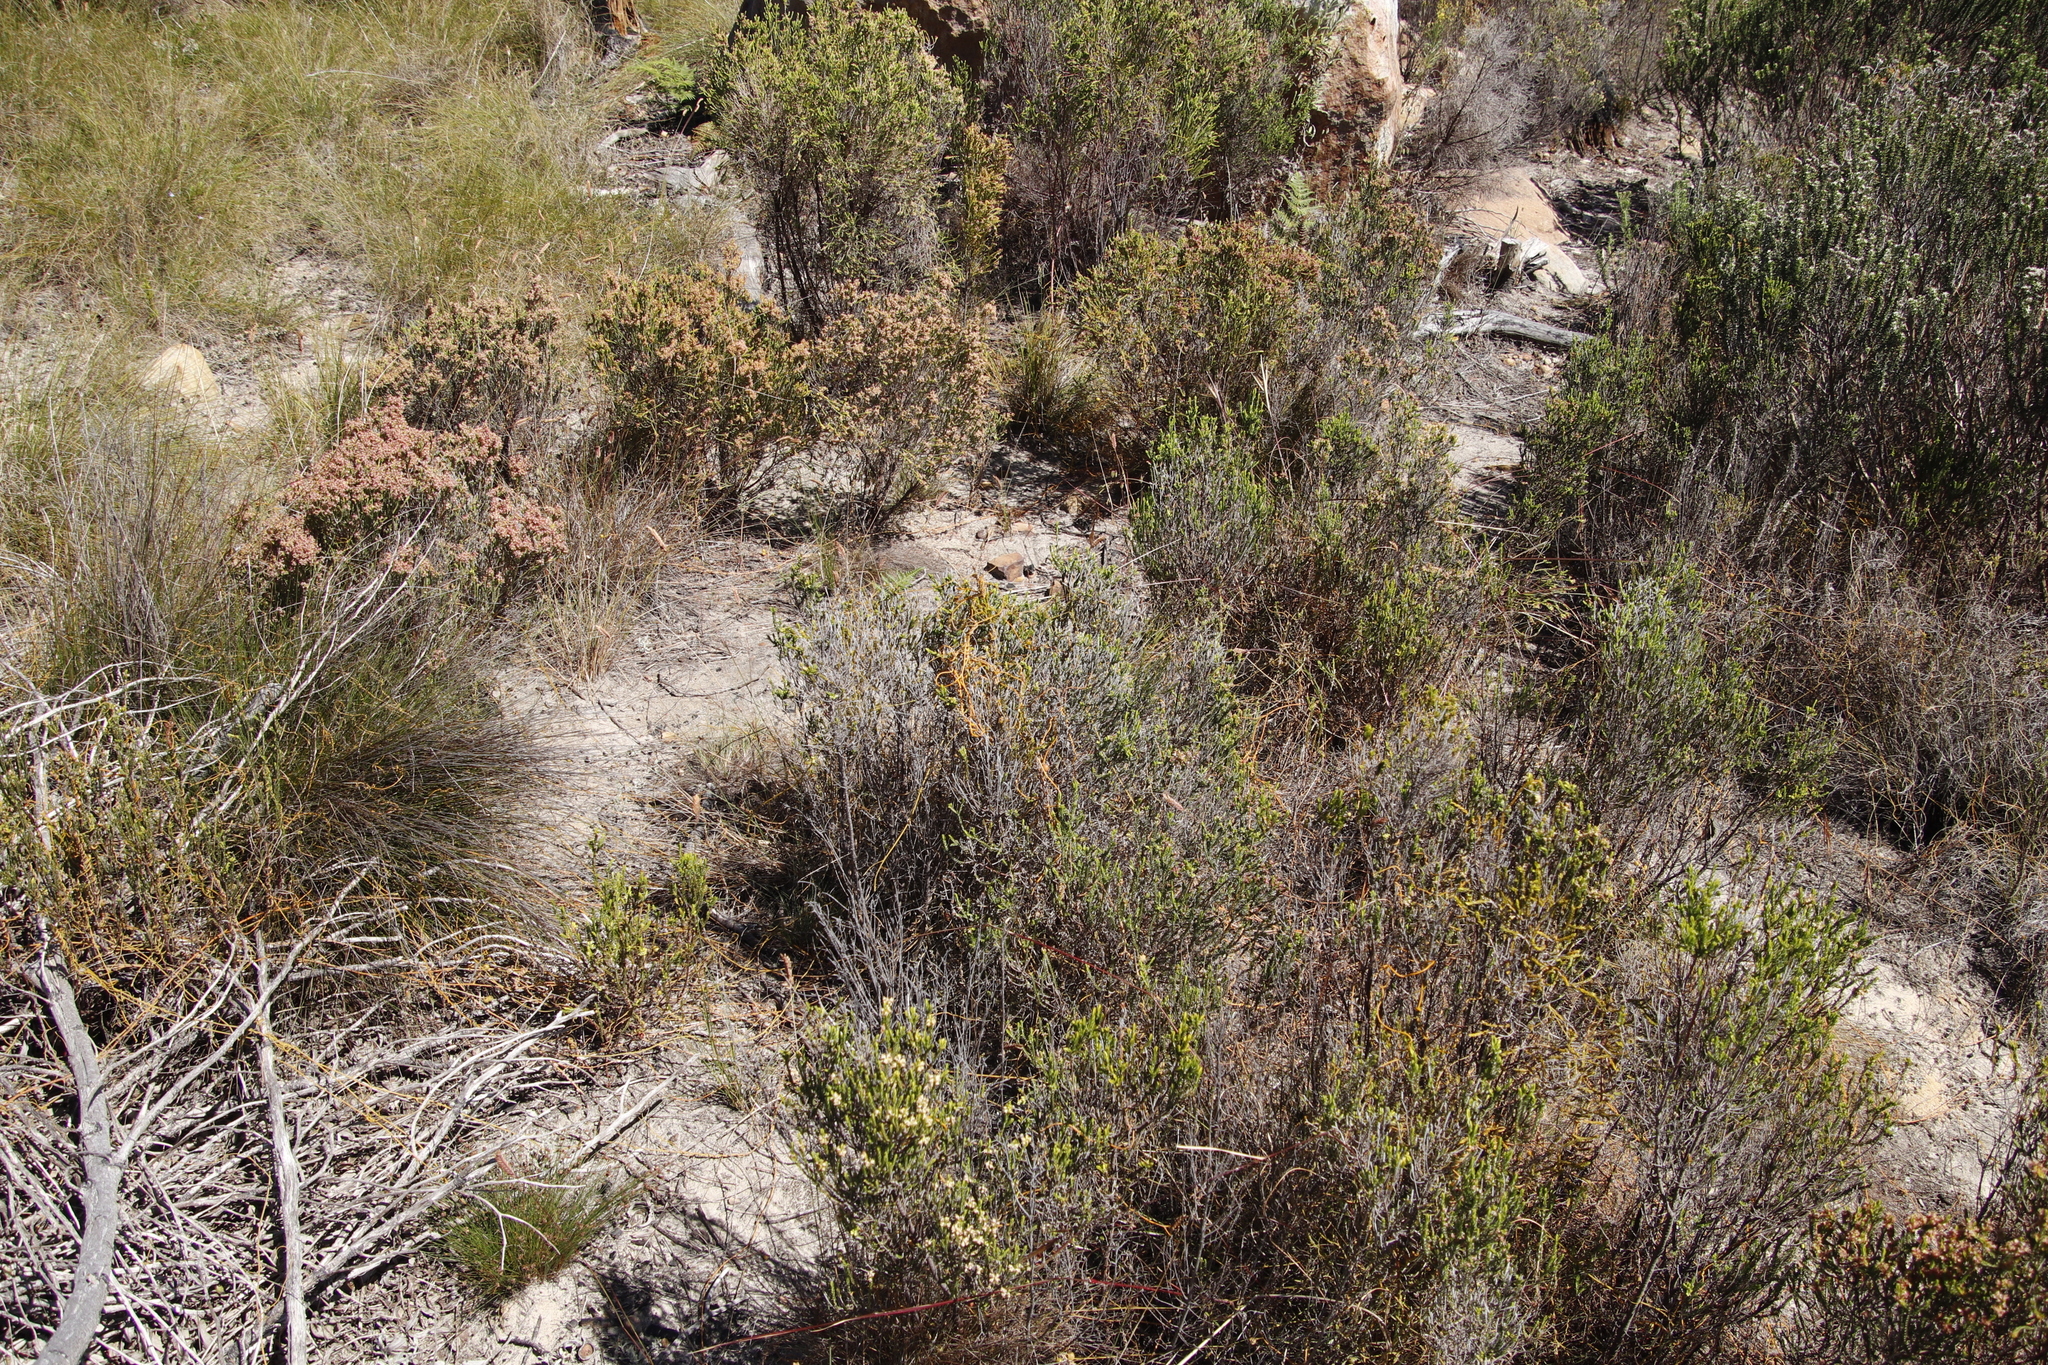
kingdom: Plantae
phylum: Tracheophyta
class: Magnoliopsida
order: Malvales
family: Thymelaeaceae
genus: Passerina
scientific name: Passerina corymbosa
